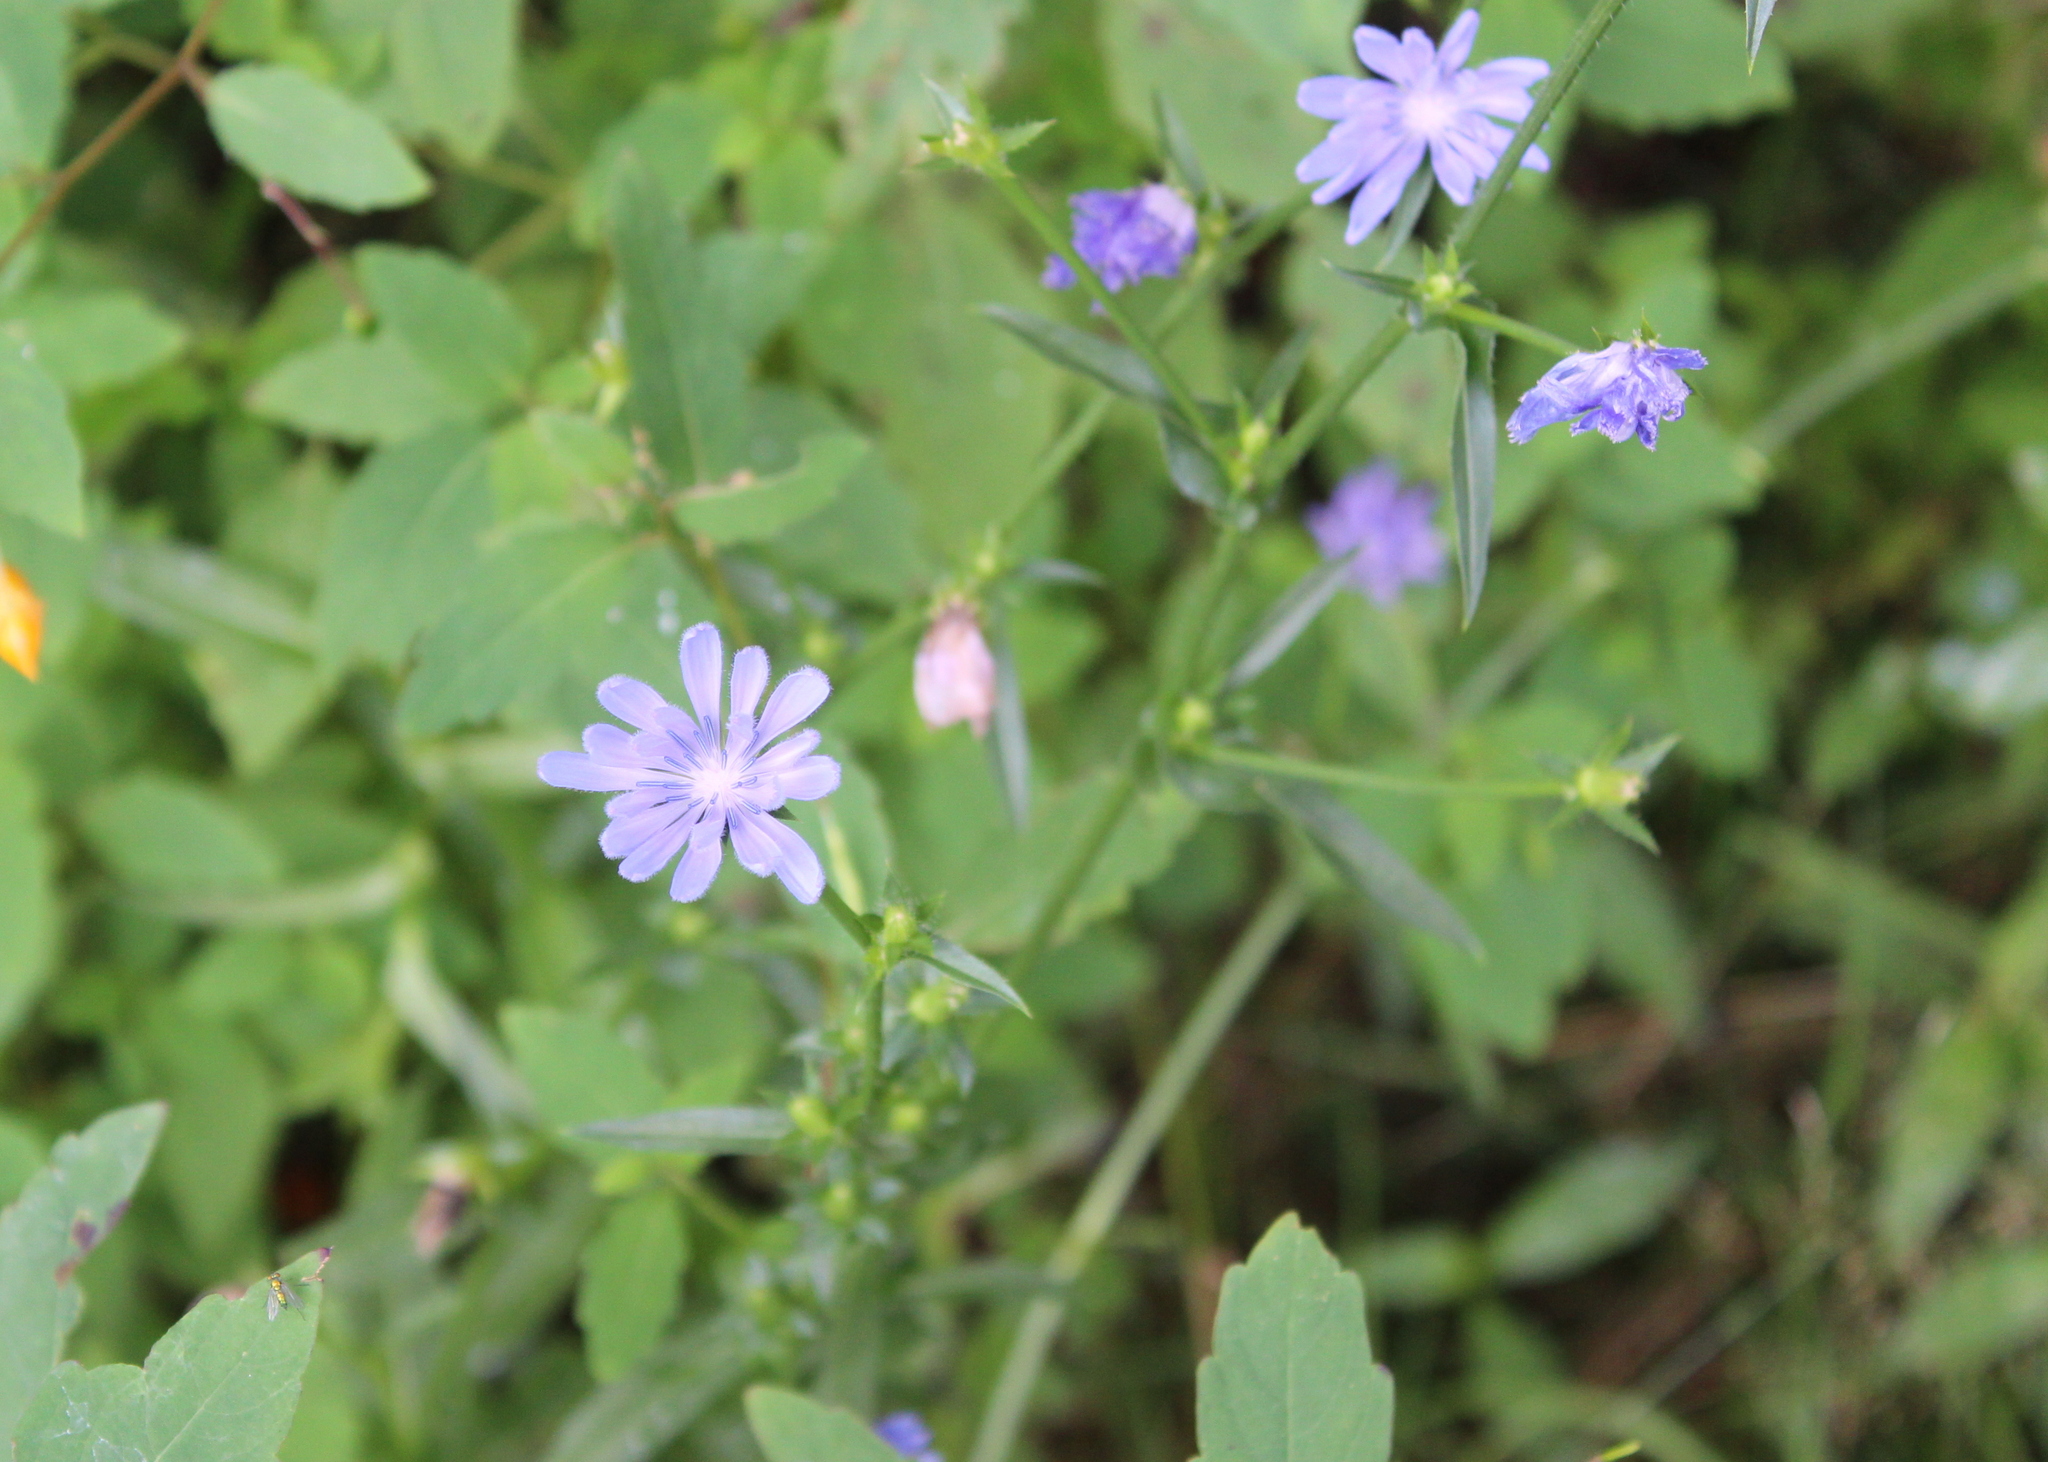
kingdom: Plantae
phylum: Tracheophyta
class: Magnoliopsida
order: Asterales
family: Asteraceae
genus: Cichorium
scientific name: Cichorium intybus
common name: Chicory
